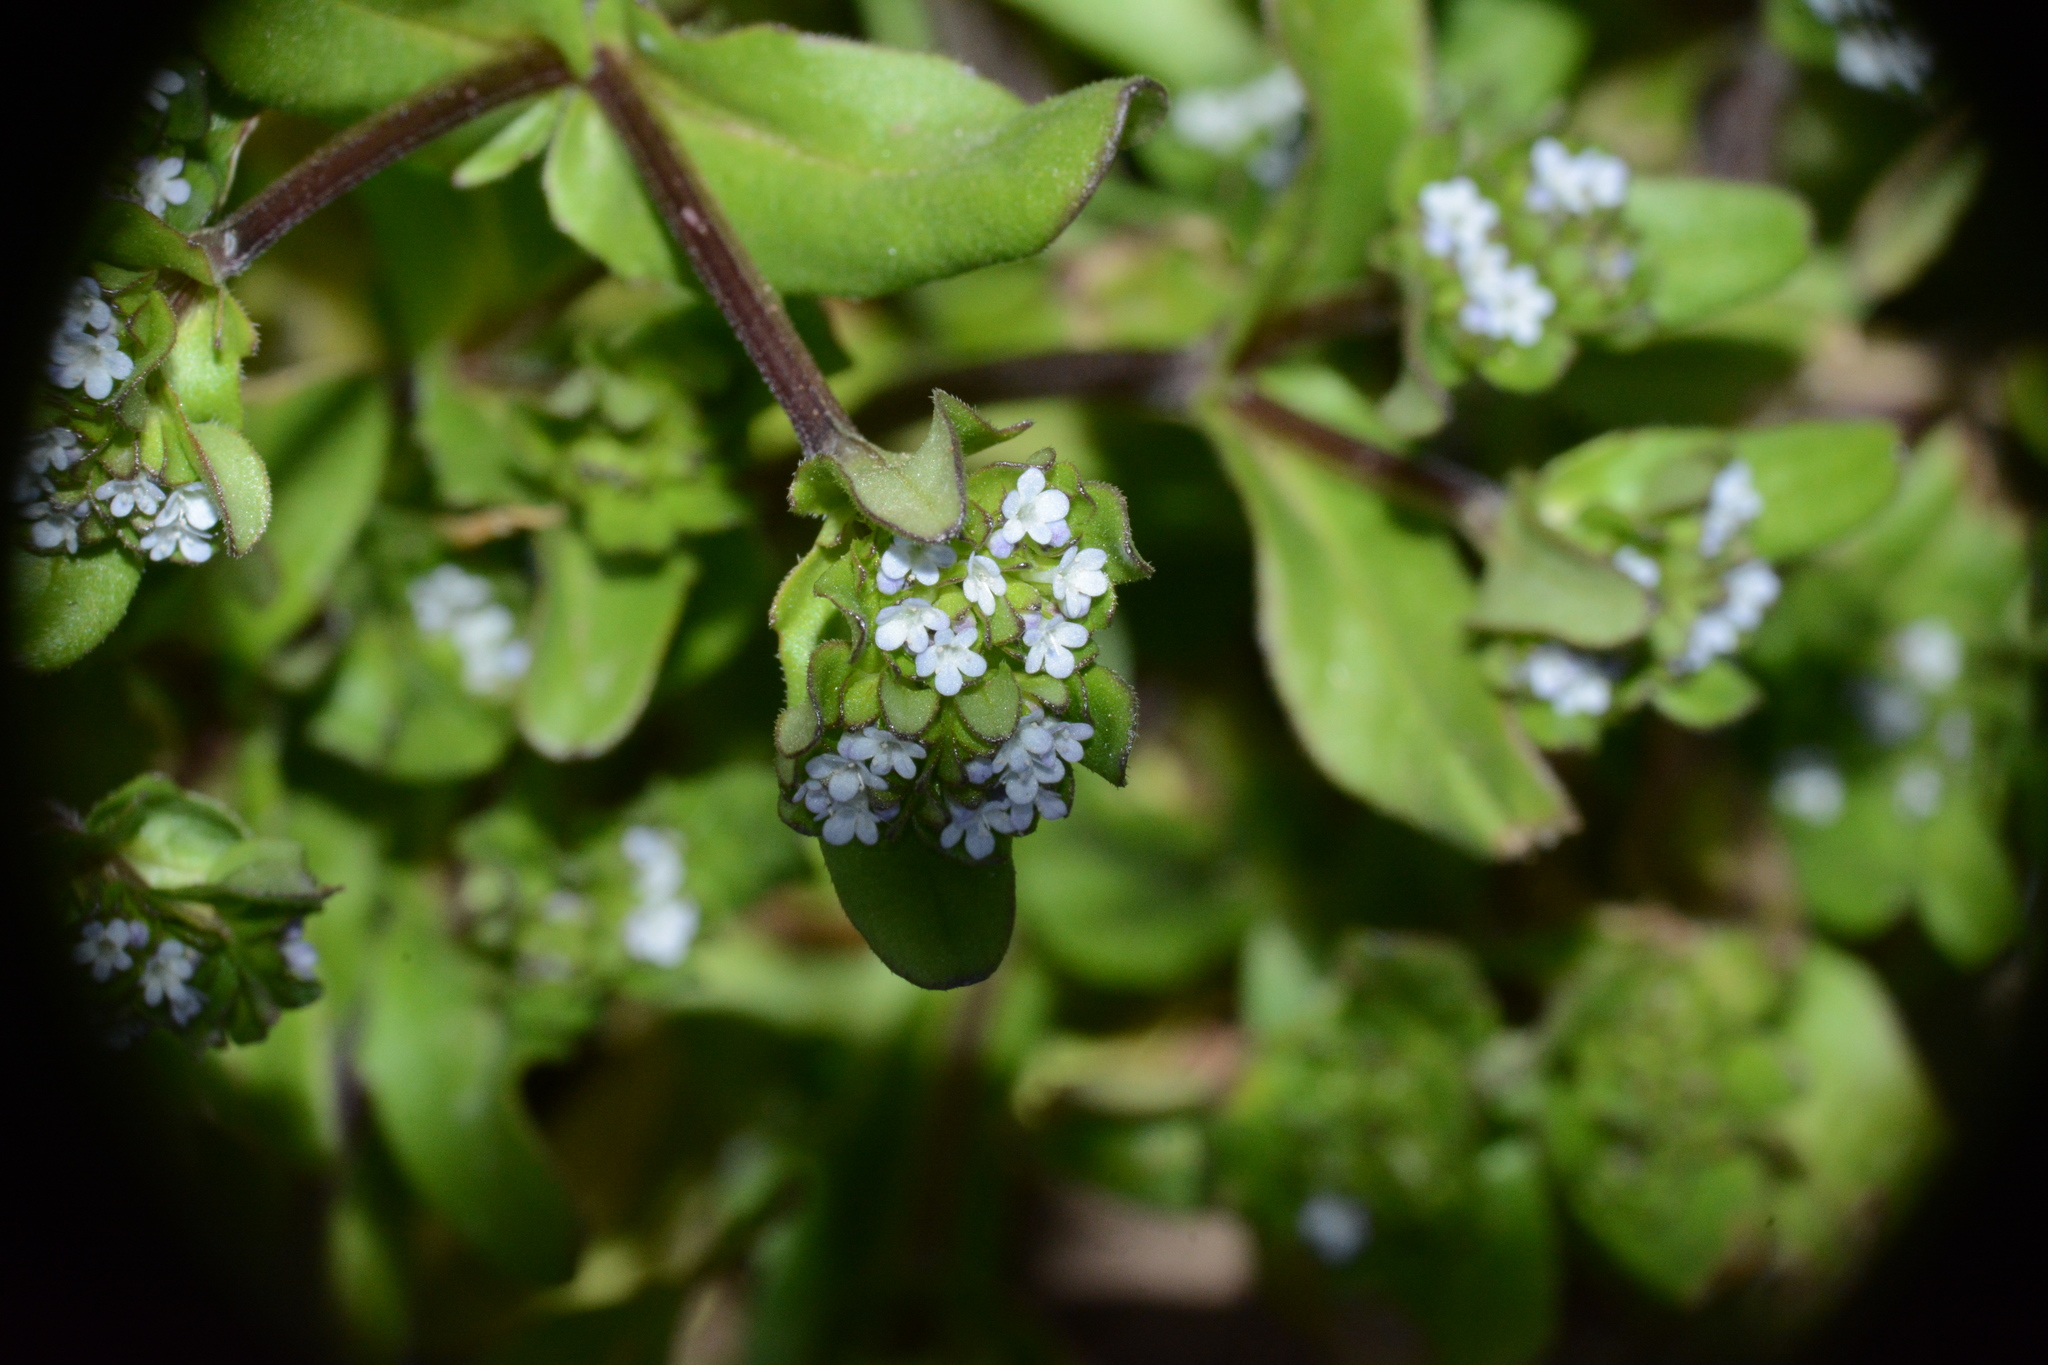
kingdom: Plantae
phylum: Tracheophyta
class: Magnoliopsida
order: Dipsacales
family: Caprifoliaceae
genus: Valerianella
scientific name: Valerianella
